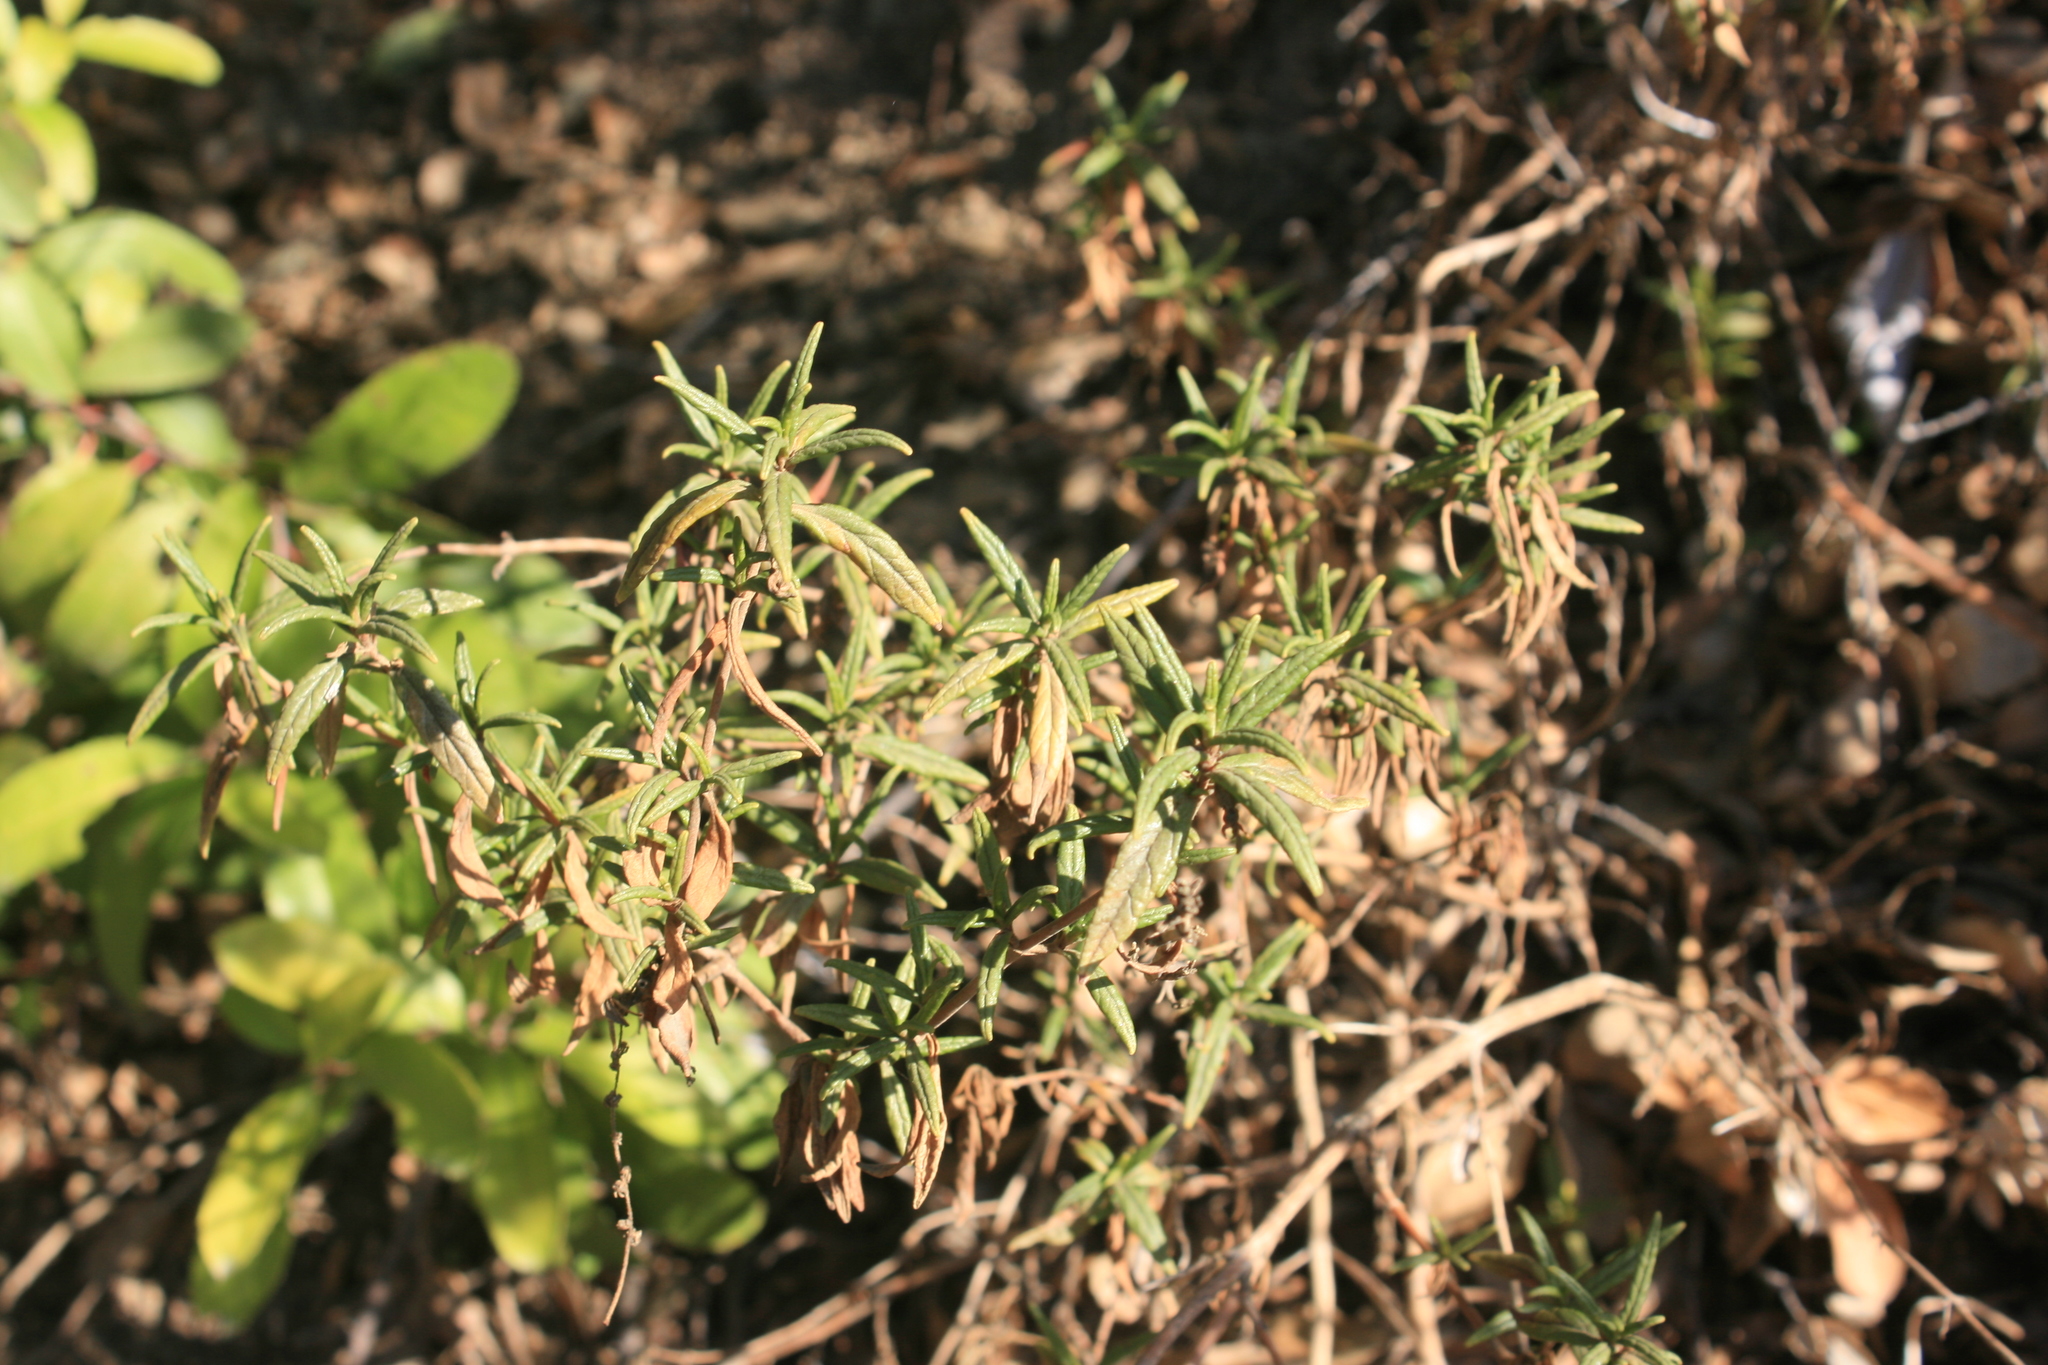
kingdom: Plantae
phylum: Tracheophyta
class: Magnoliopsida
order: Lamiales
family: Phrymaceae
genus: Diplacus
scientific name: Diplacus aurantiacus
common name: Bush monkey-flower
